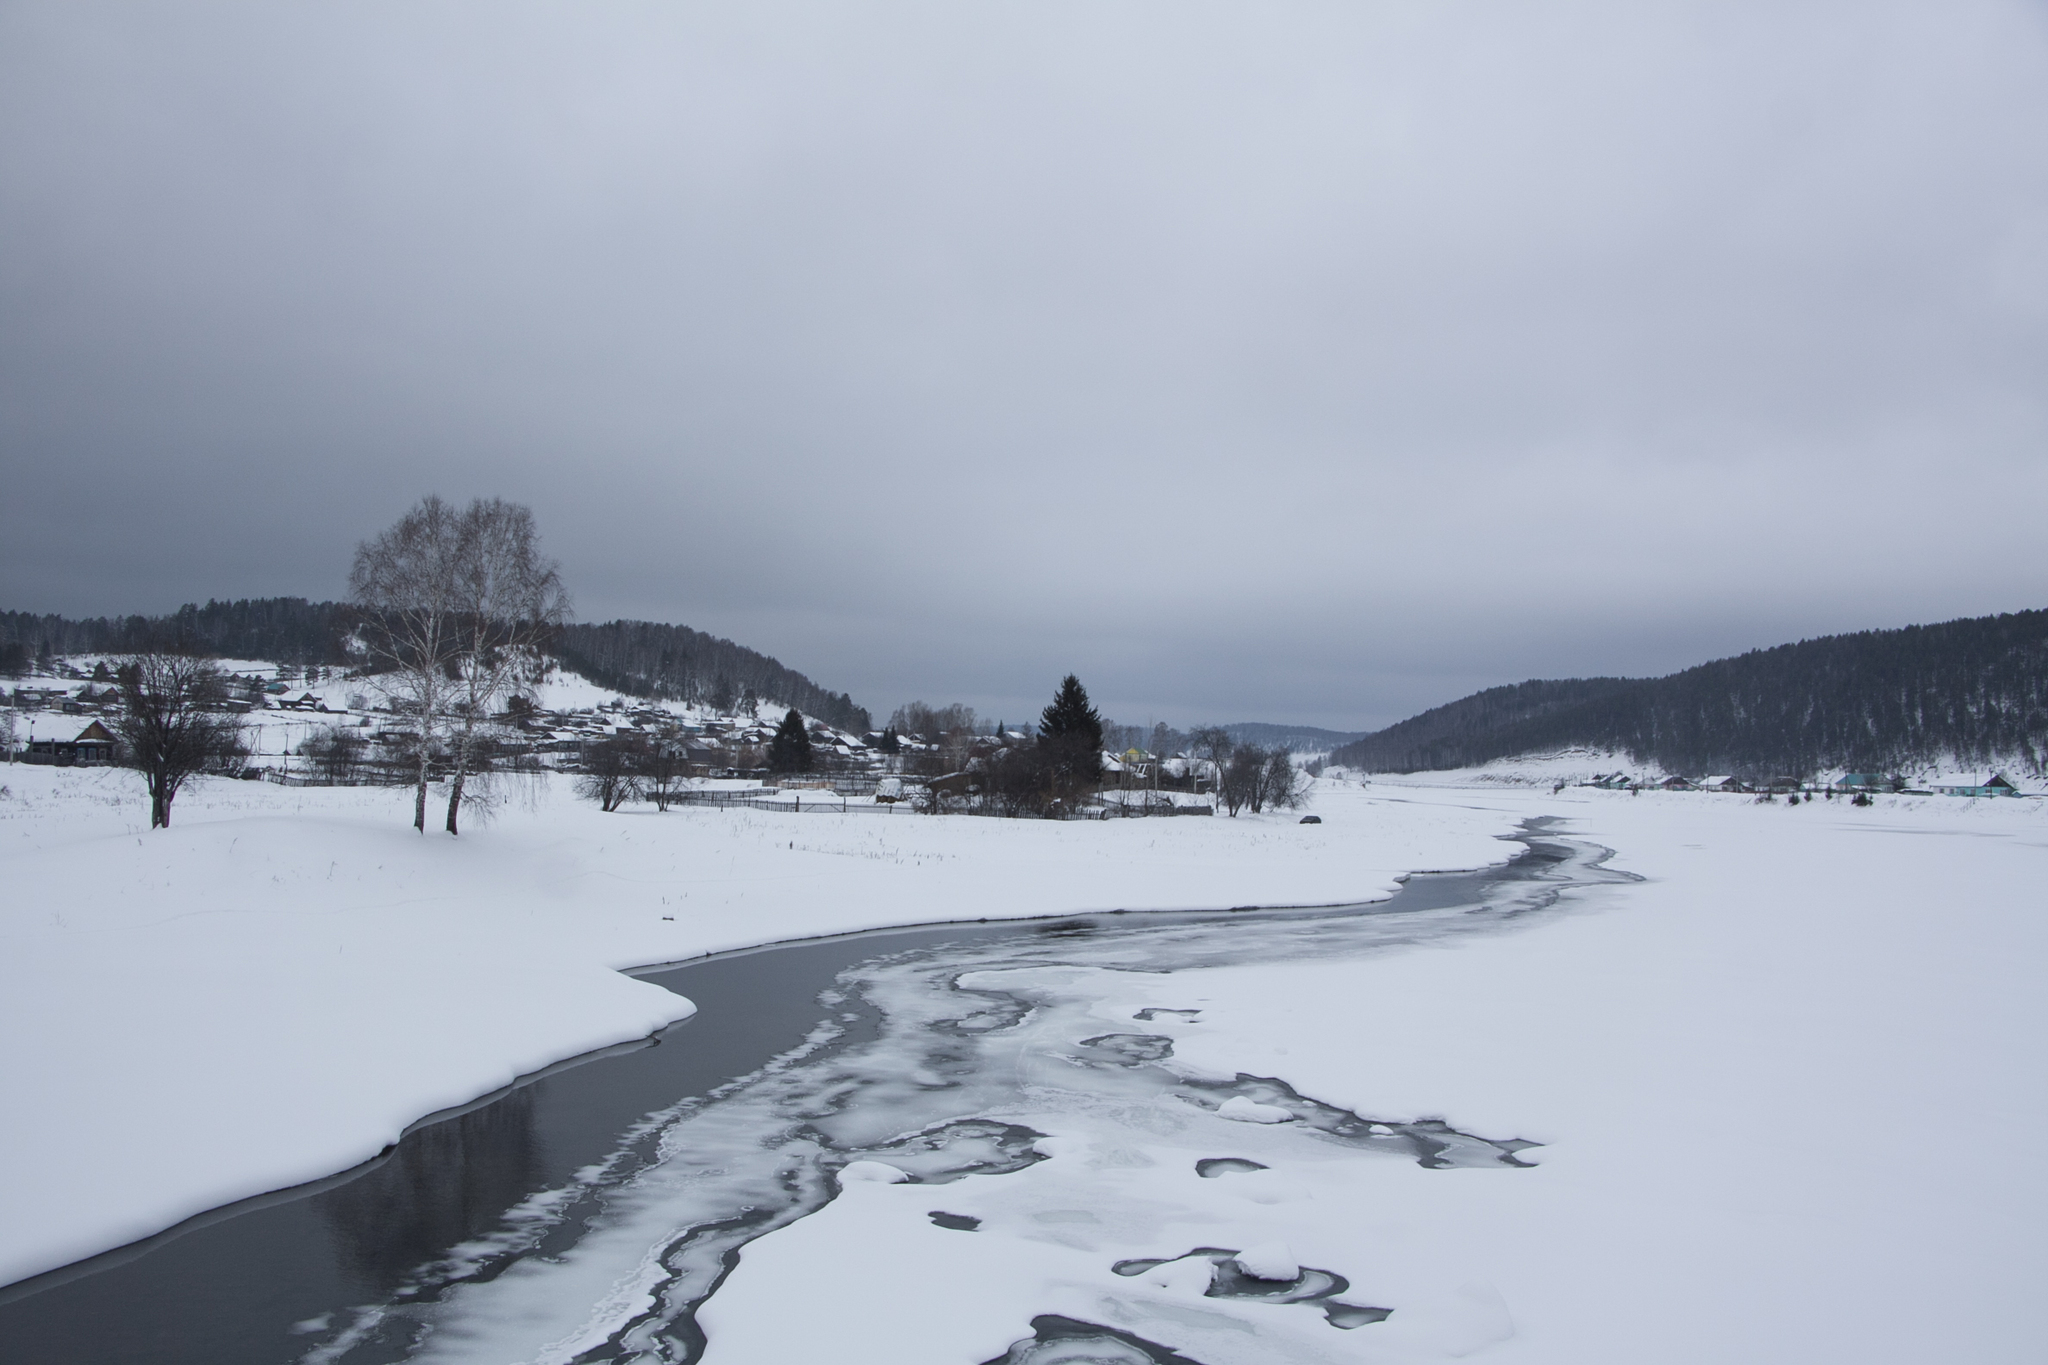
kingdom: Plantae
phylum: Tracheophyta
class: Magnoliopsida
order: Fagales
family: Betulaceae
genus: Betula
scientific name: Betula pendula
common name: Silver birch
